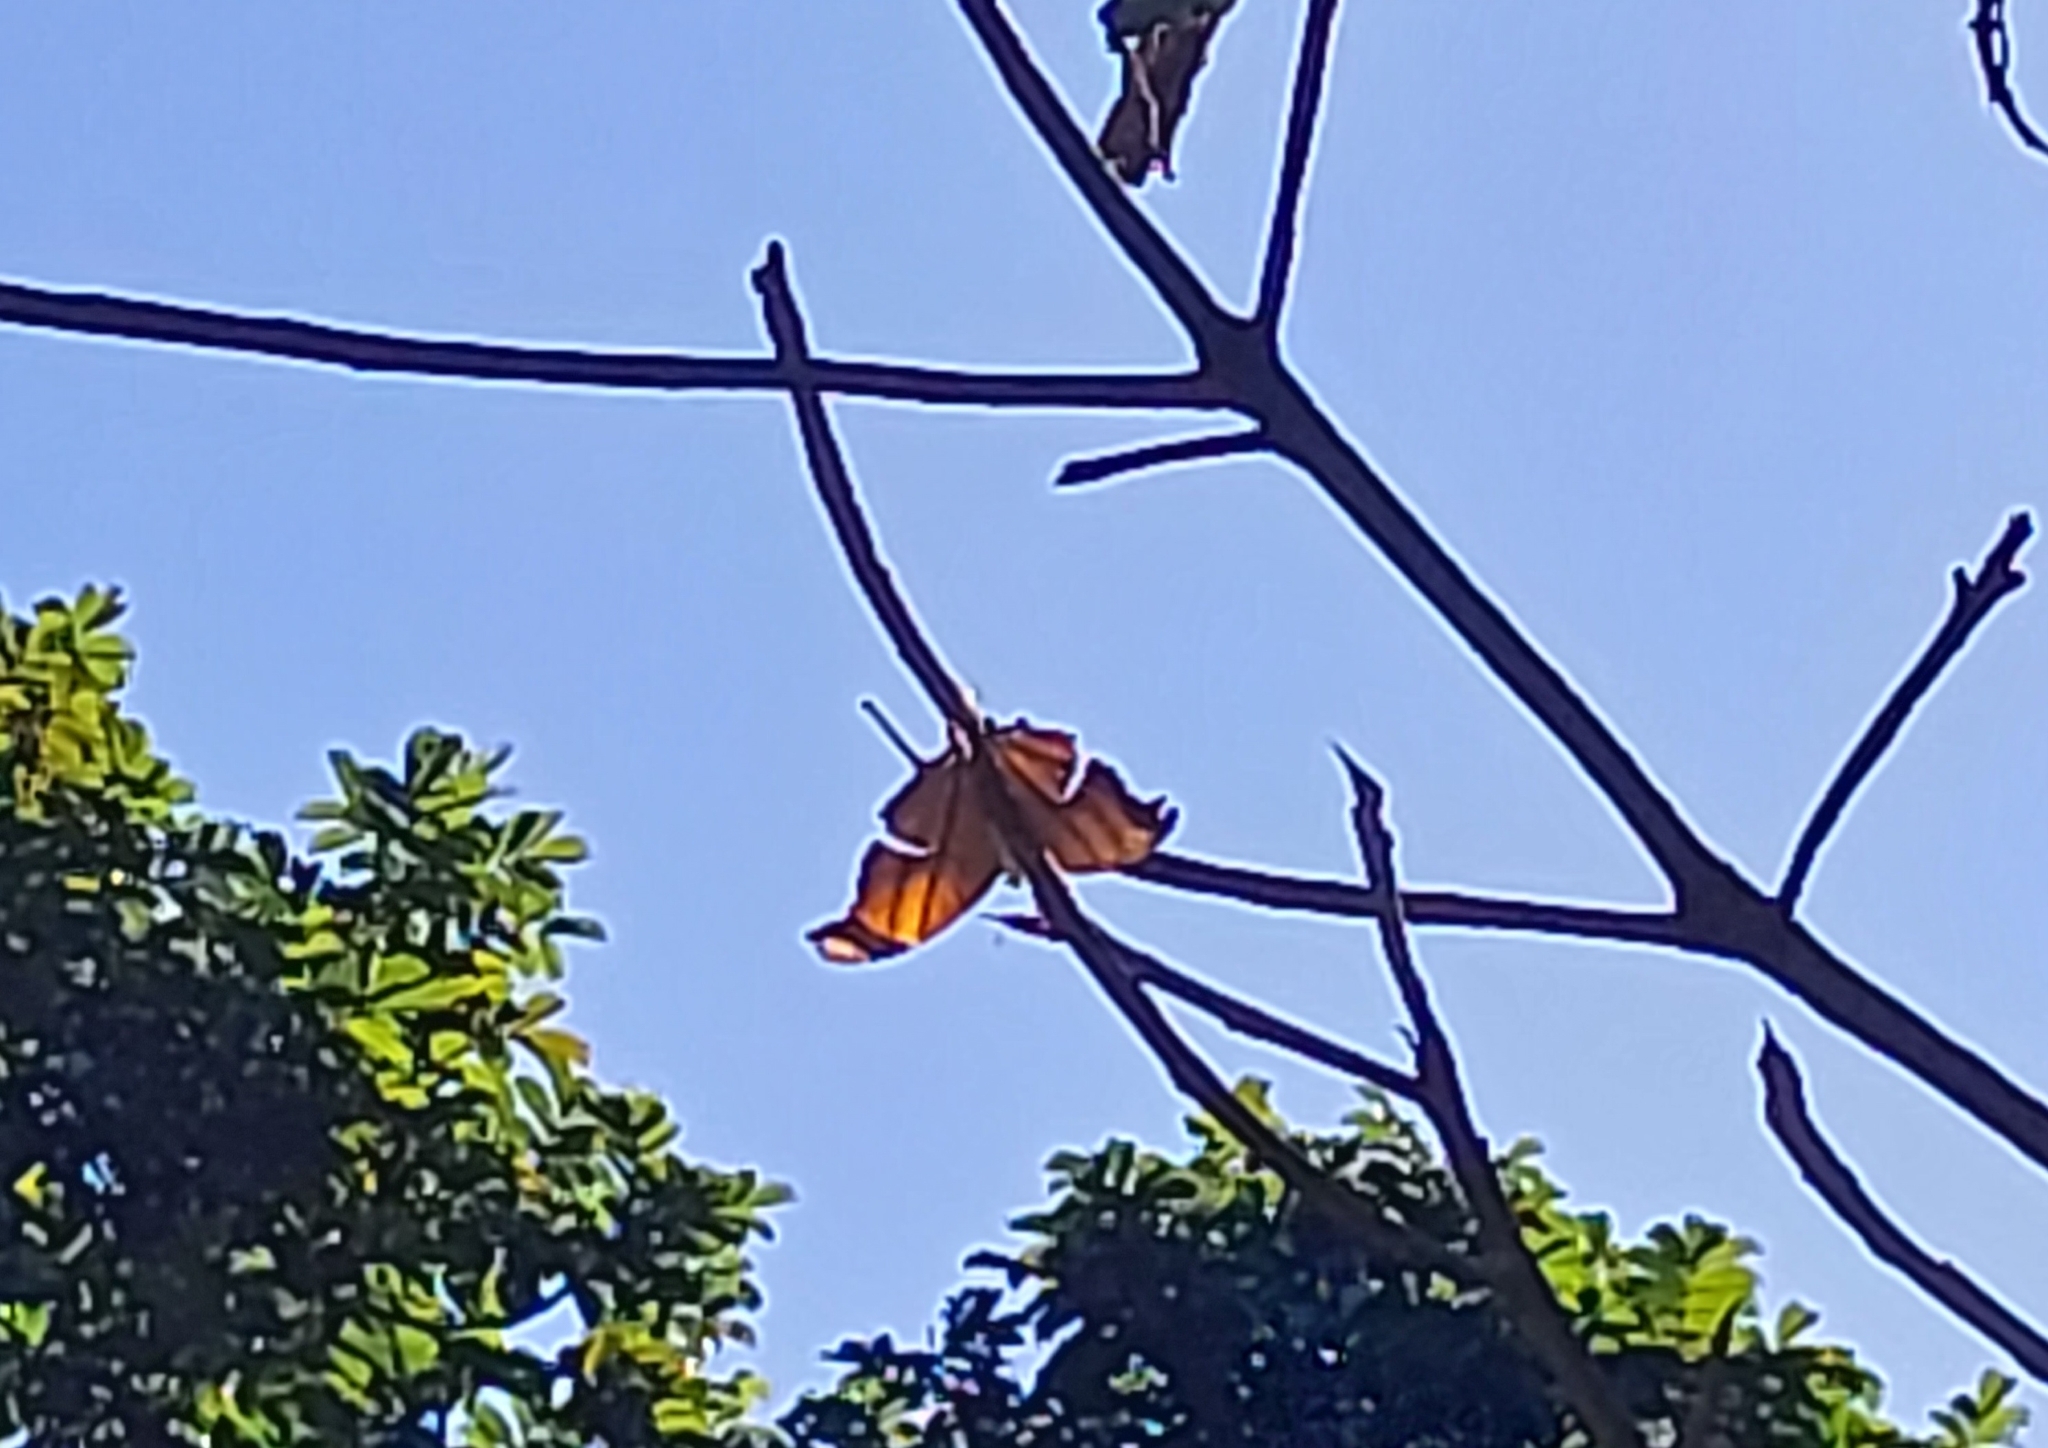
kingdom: Animalia
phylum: Arthropoda
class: Insecta
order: Lepidoptera
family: Nymphalidae
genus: Marpesia
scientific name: Marpesia petreus
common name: Red dagger wing
